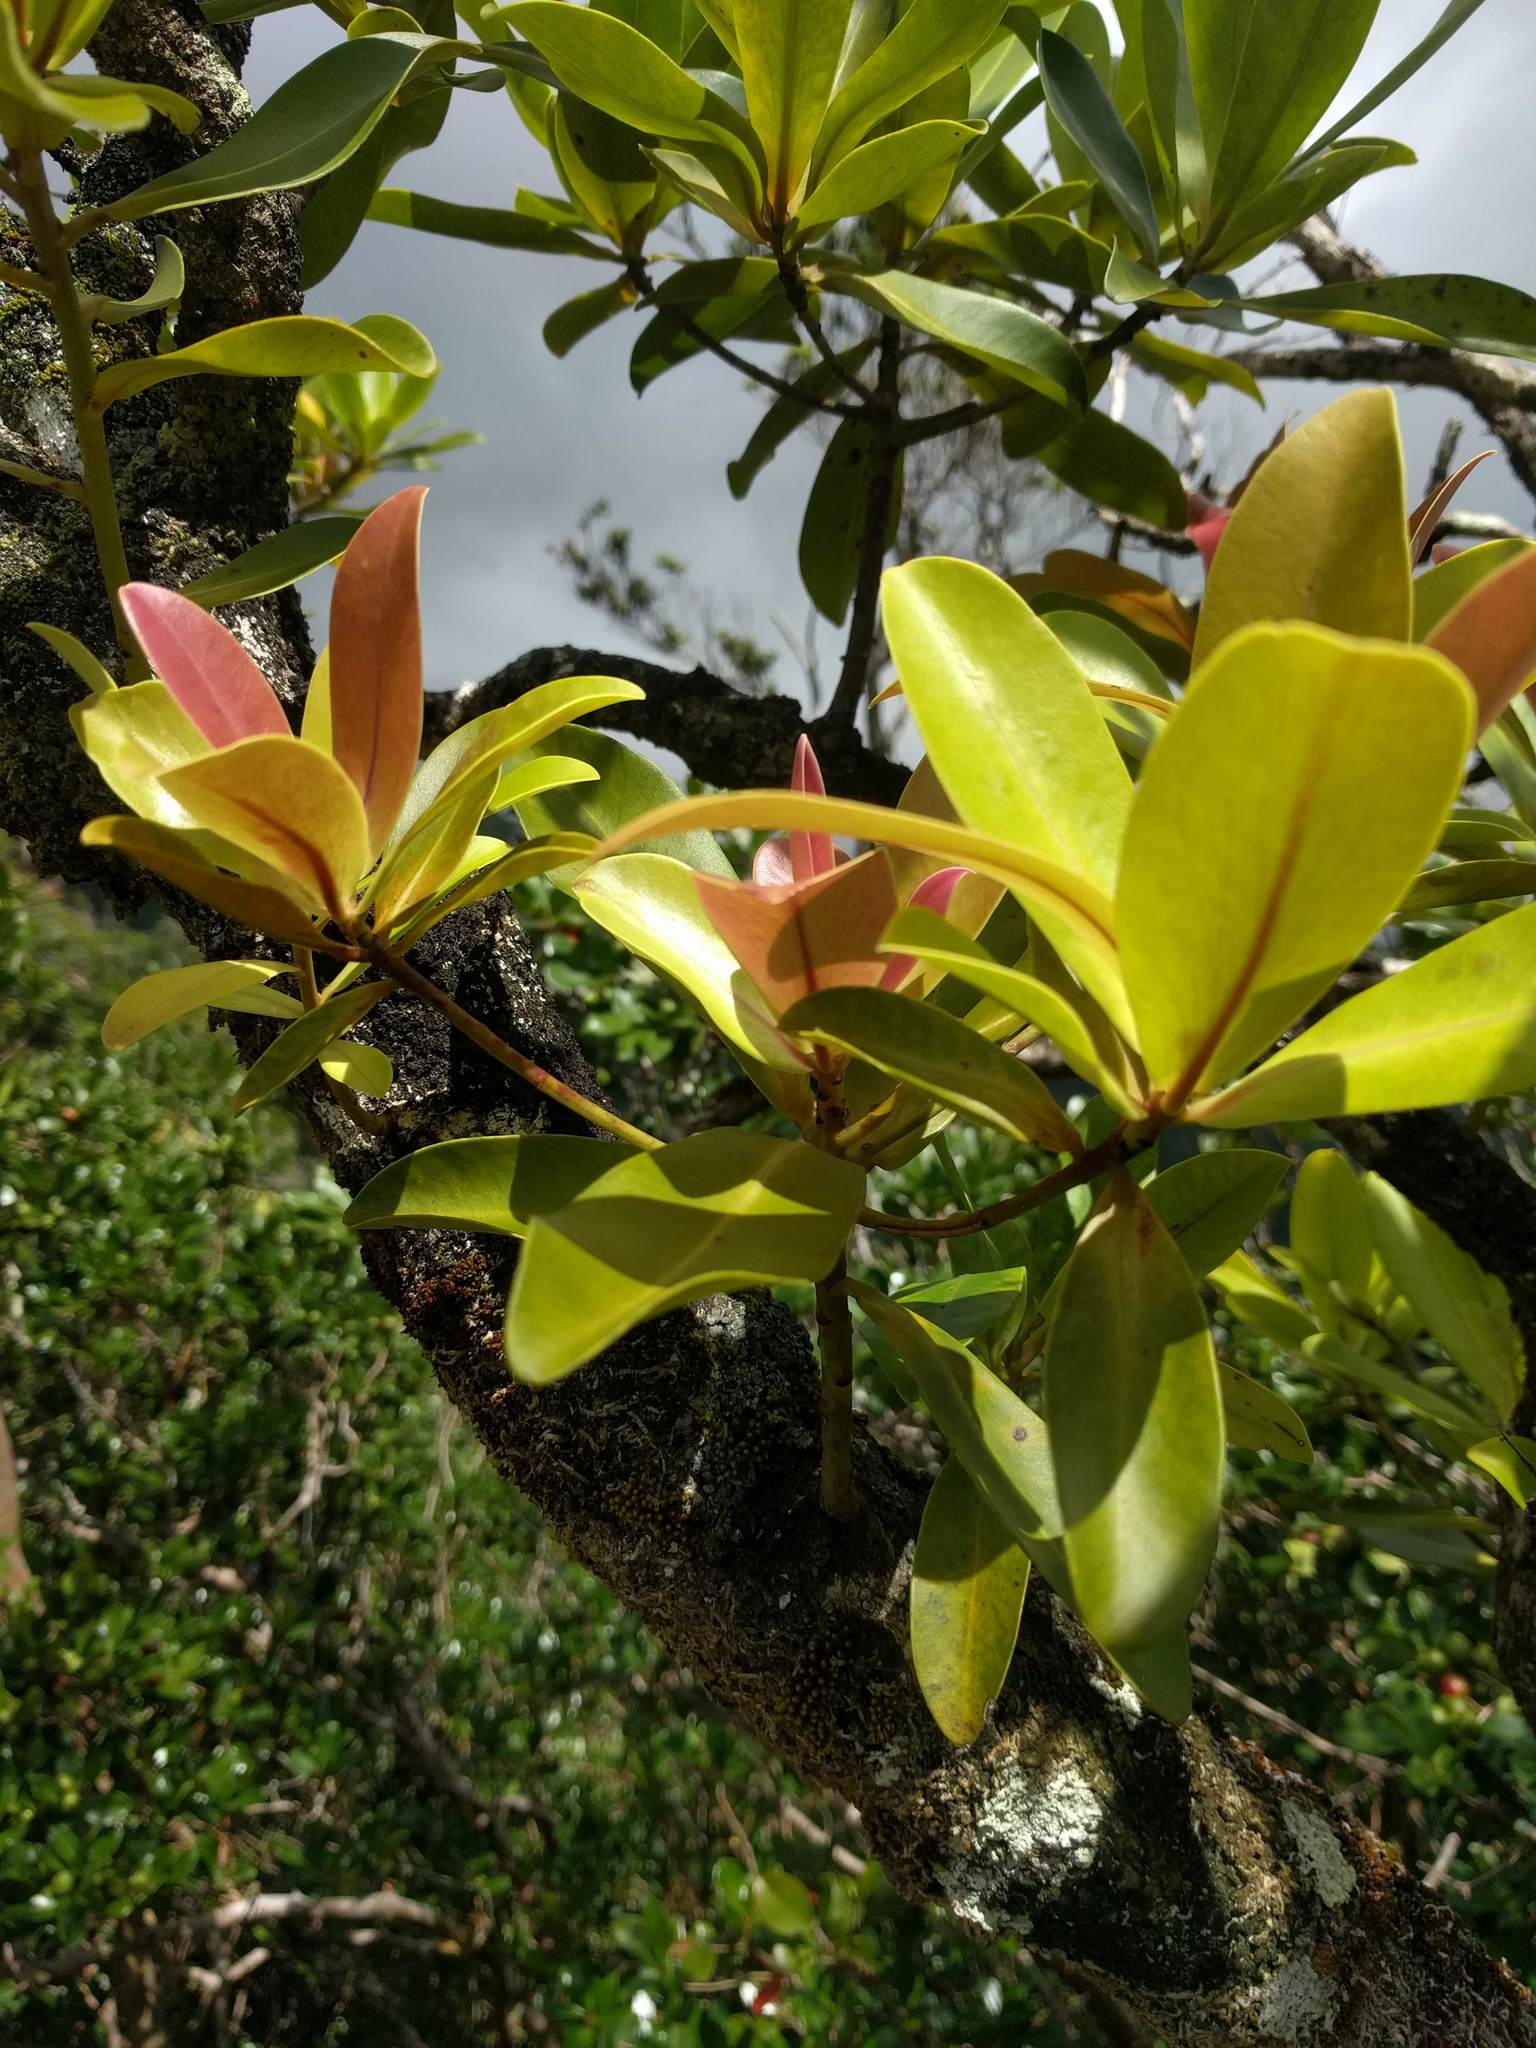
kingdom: Plantae
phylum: Tracheophyta
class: Magnoliopsida
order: Ericales
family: Primulaceae
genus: Myrsine
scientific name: Myrsine lessertiana
